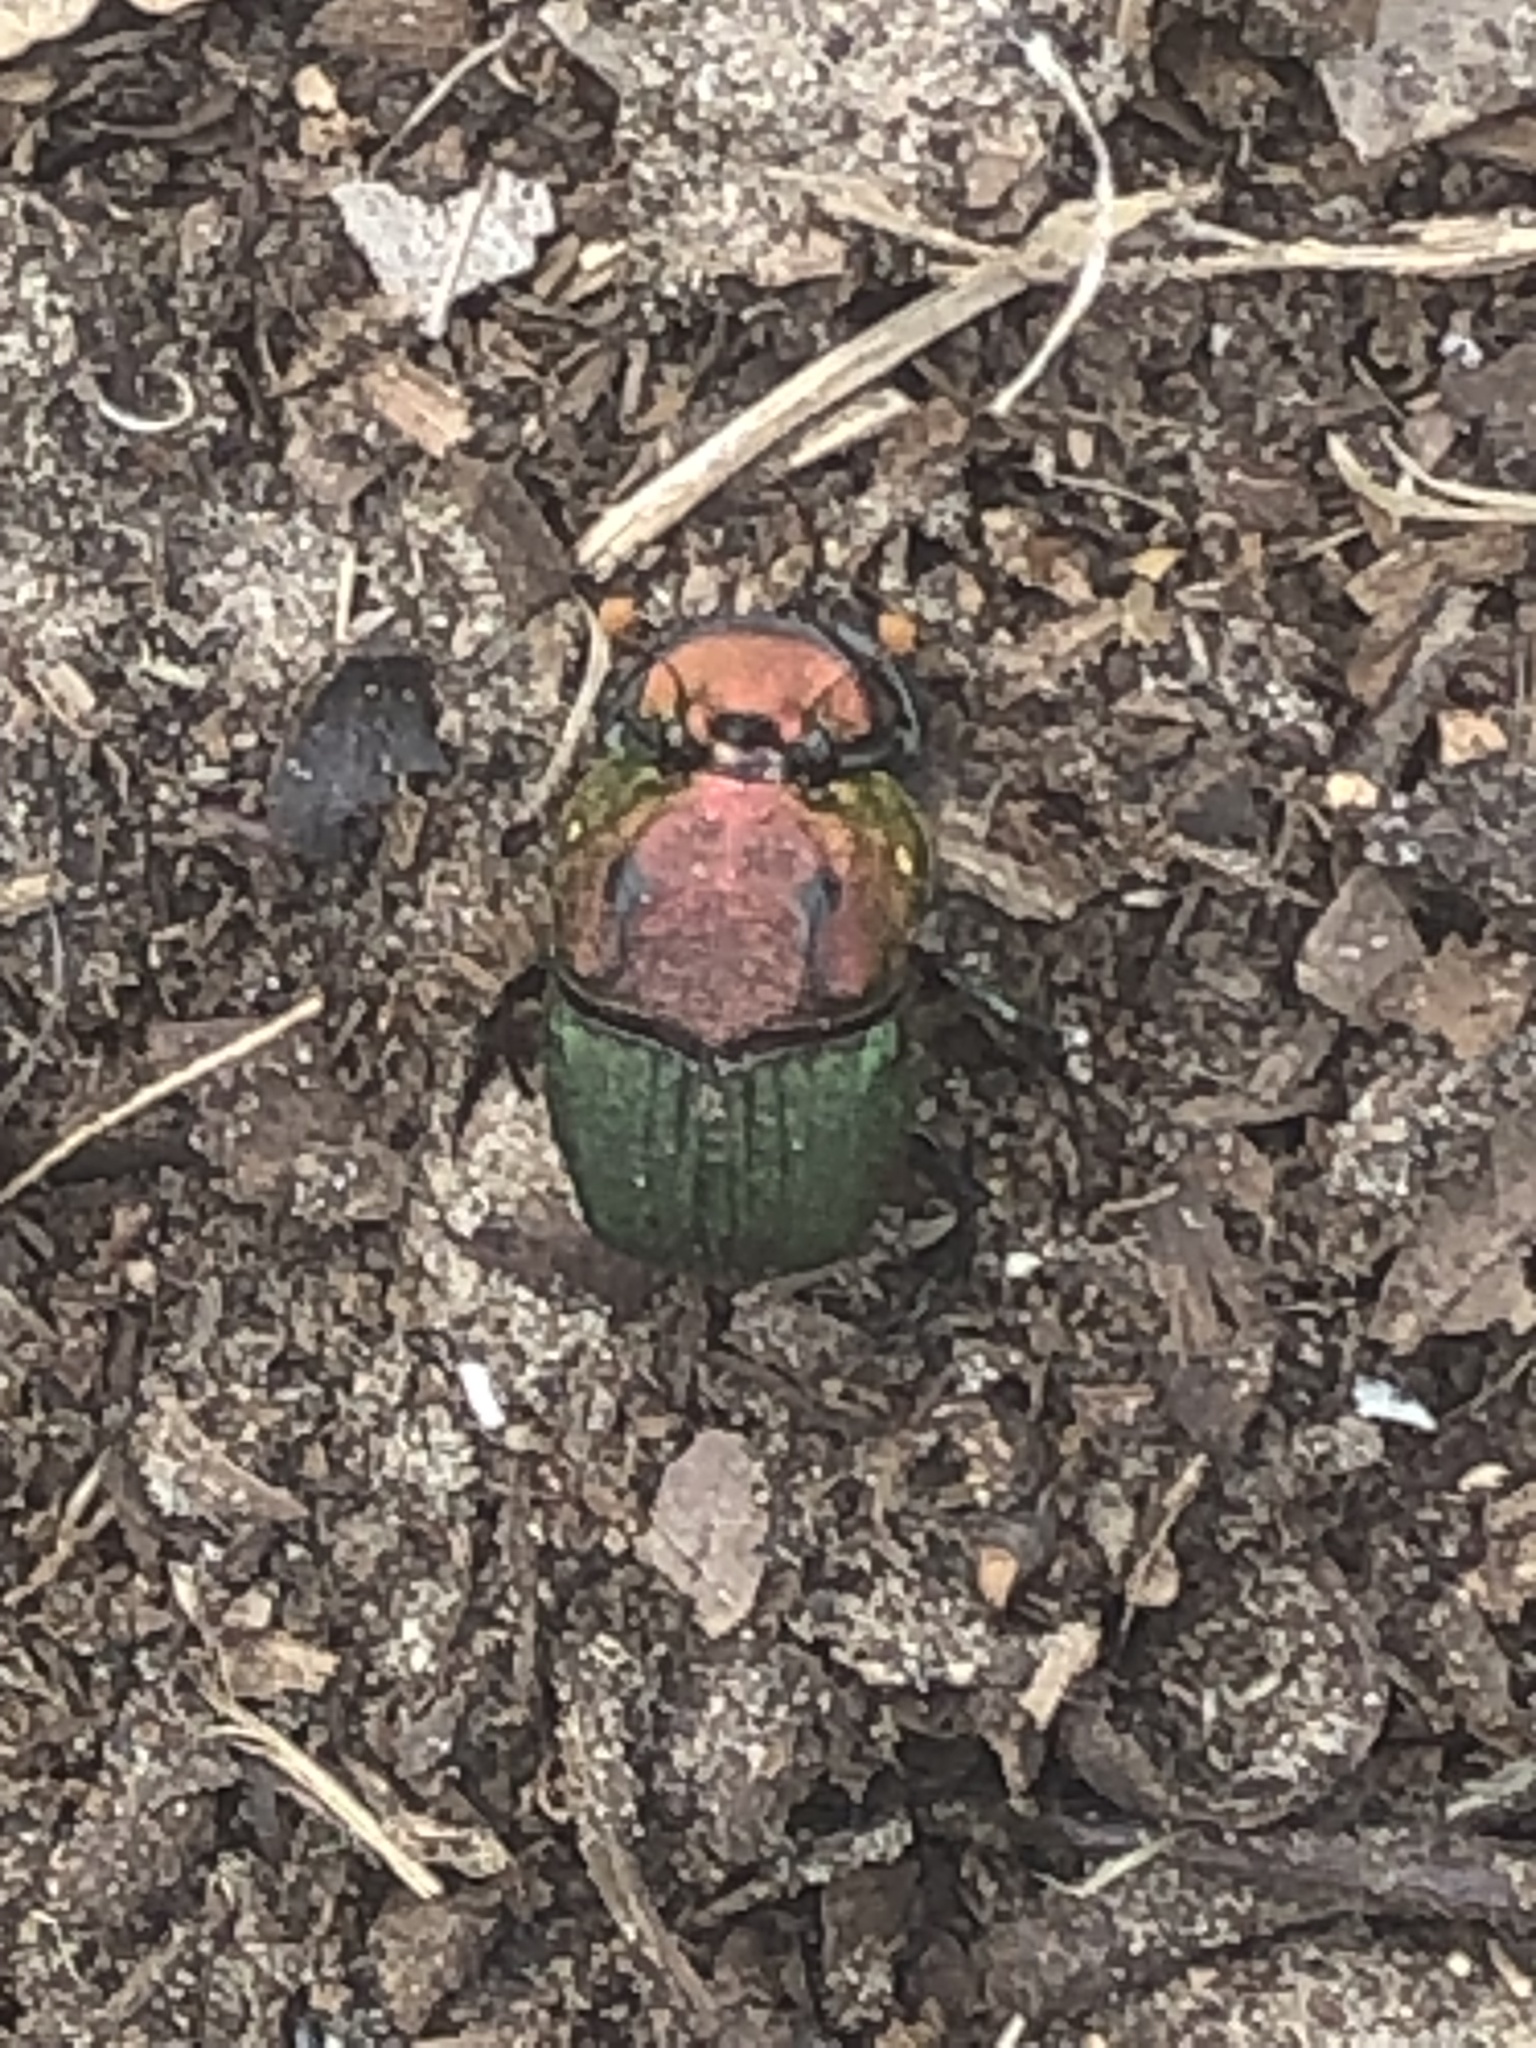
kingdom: Animalia
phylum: Arthropoda
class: Insecta
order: Coleoptera
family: Scarabaeidae
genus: Phanaeus
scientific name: Phanaeus vindex
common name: Rainbow scarab
